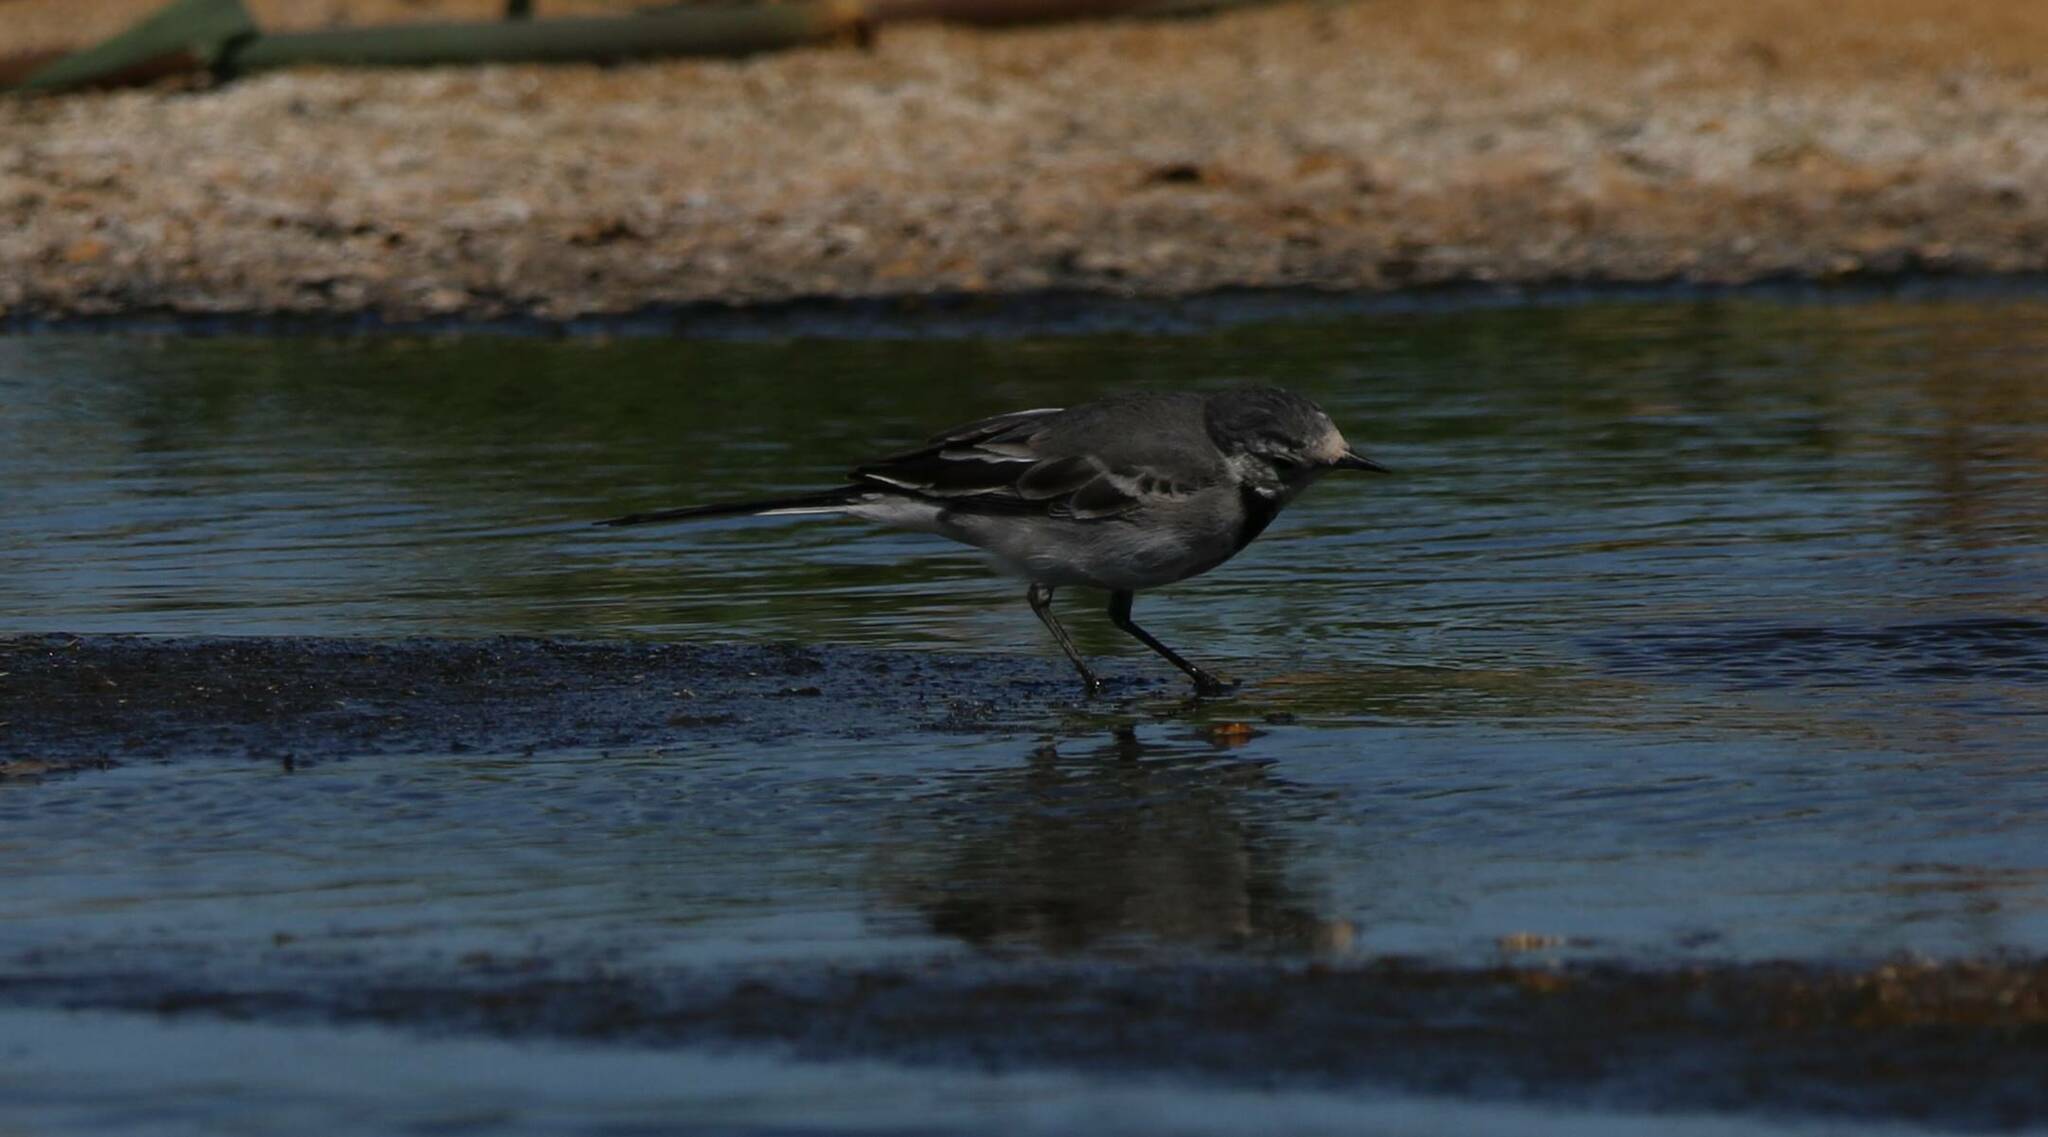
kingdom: Animalia
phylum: Chordata
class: Aves
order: Passeriformes
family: Motacillidae
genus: Motacilla
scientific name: Motacilla alba
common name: White wagtail
